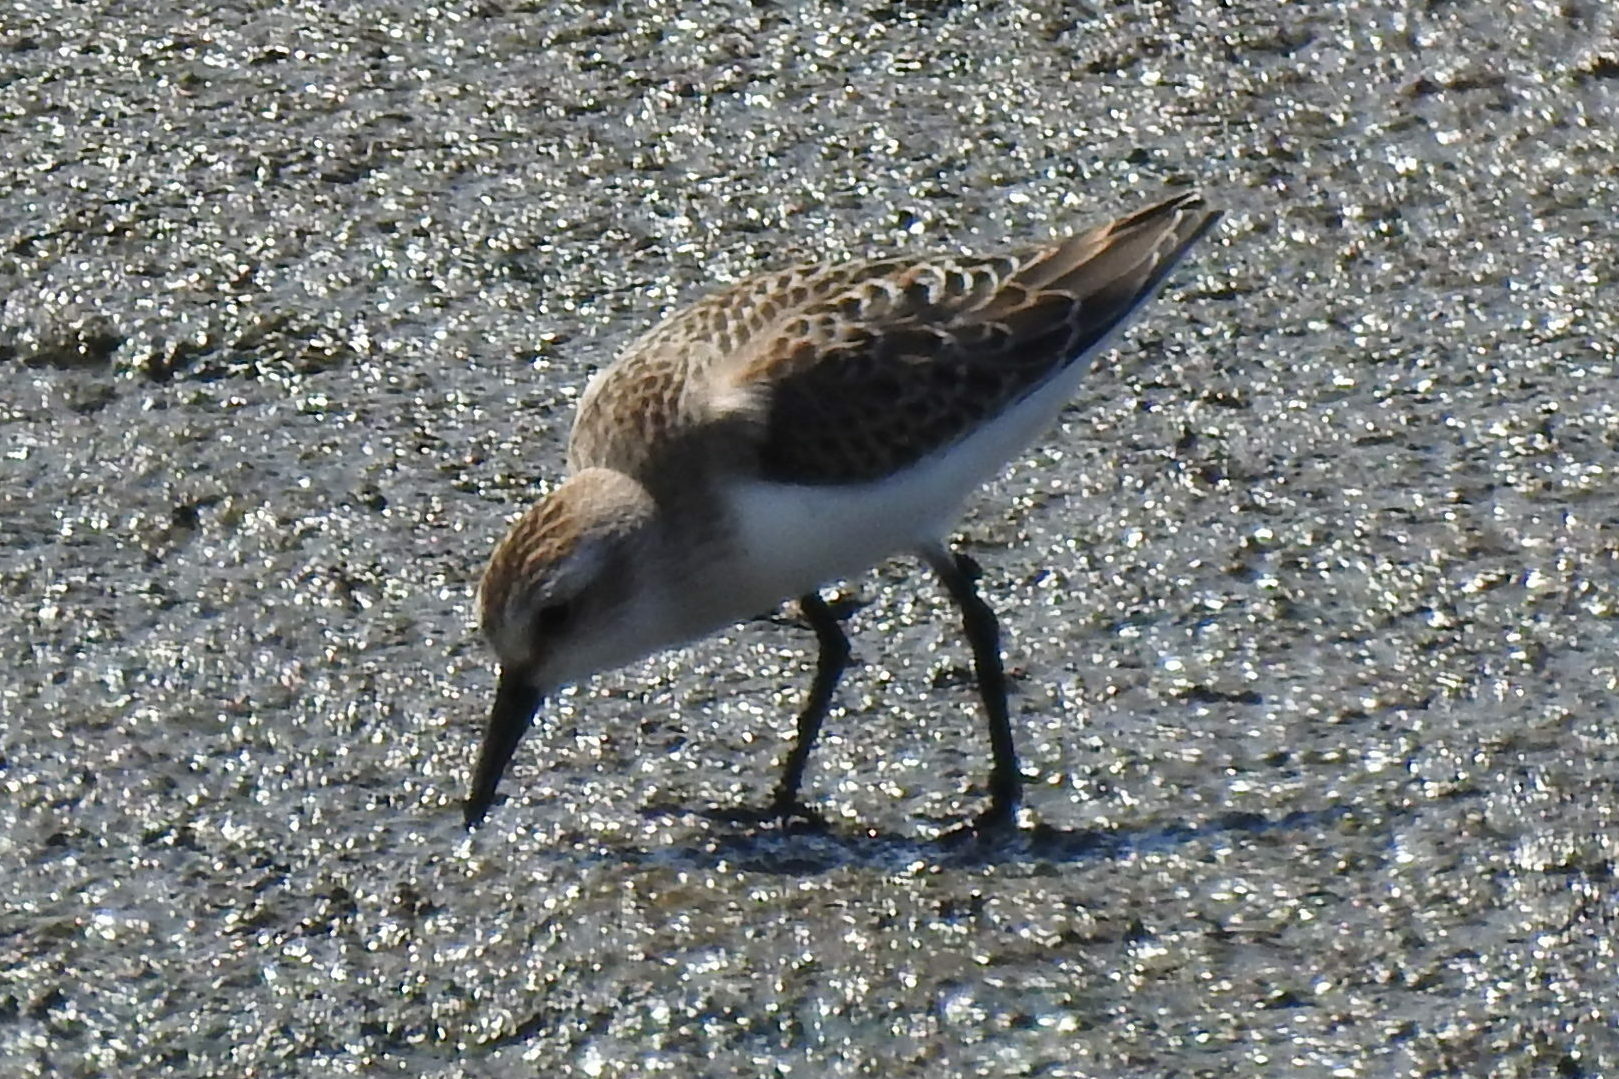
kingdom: Animalia
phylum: Chordata
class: Aves
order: Charadriiformes
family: Scolopacidae
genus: Calidris
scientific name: Calidris pusilla
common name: Semipalmated sandpiper
